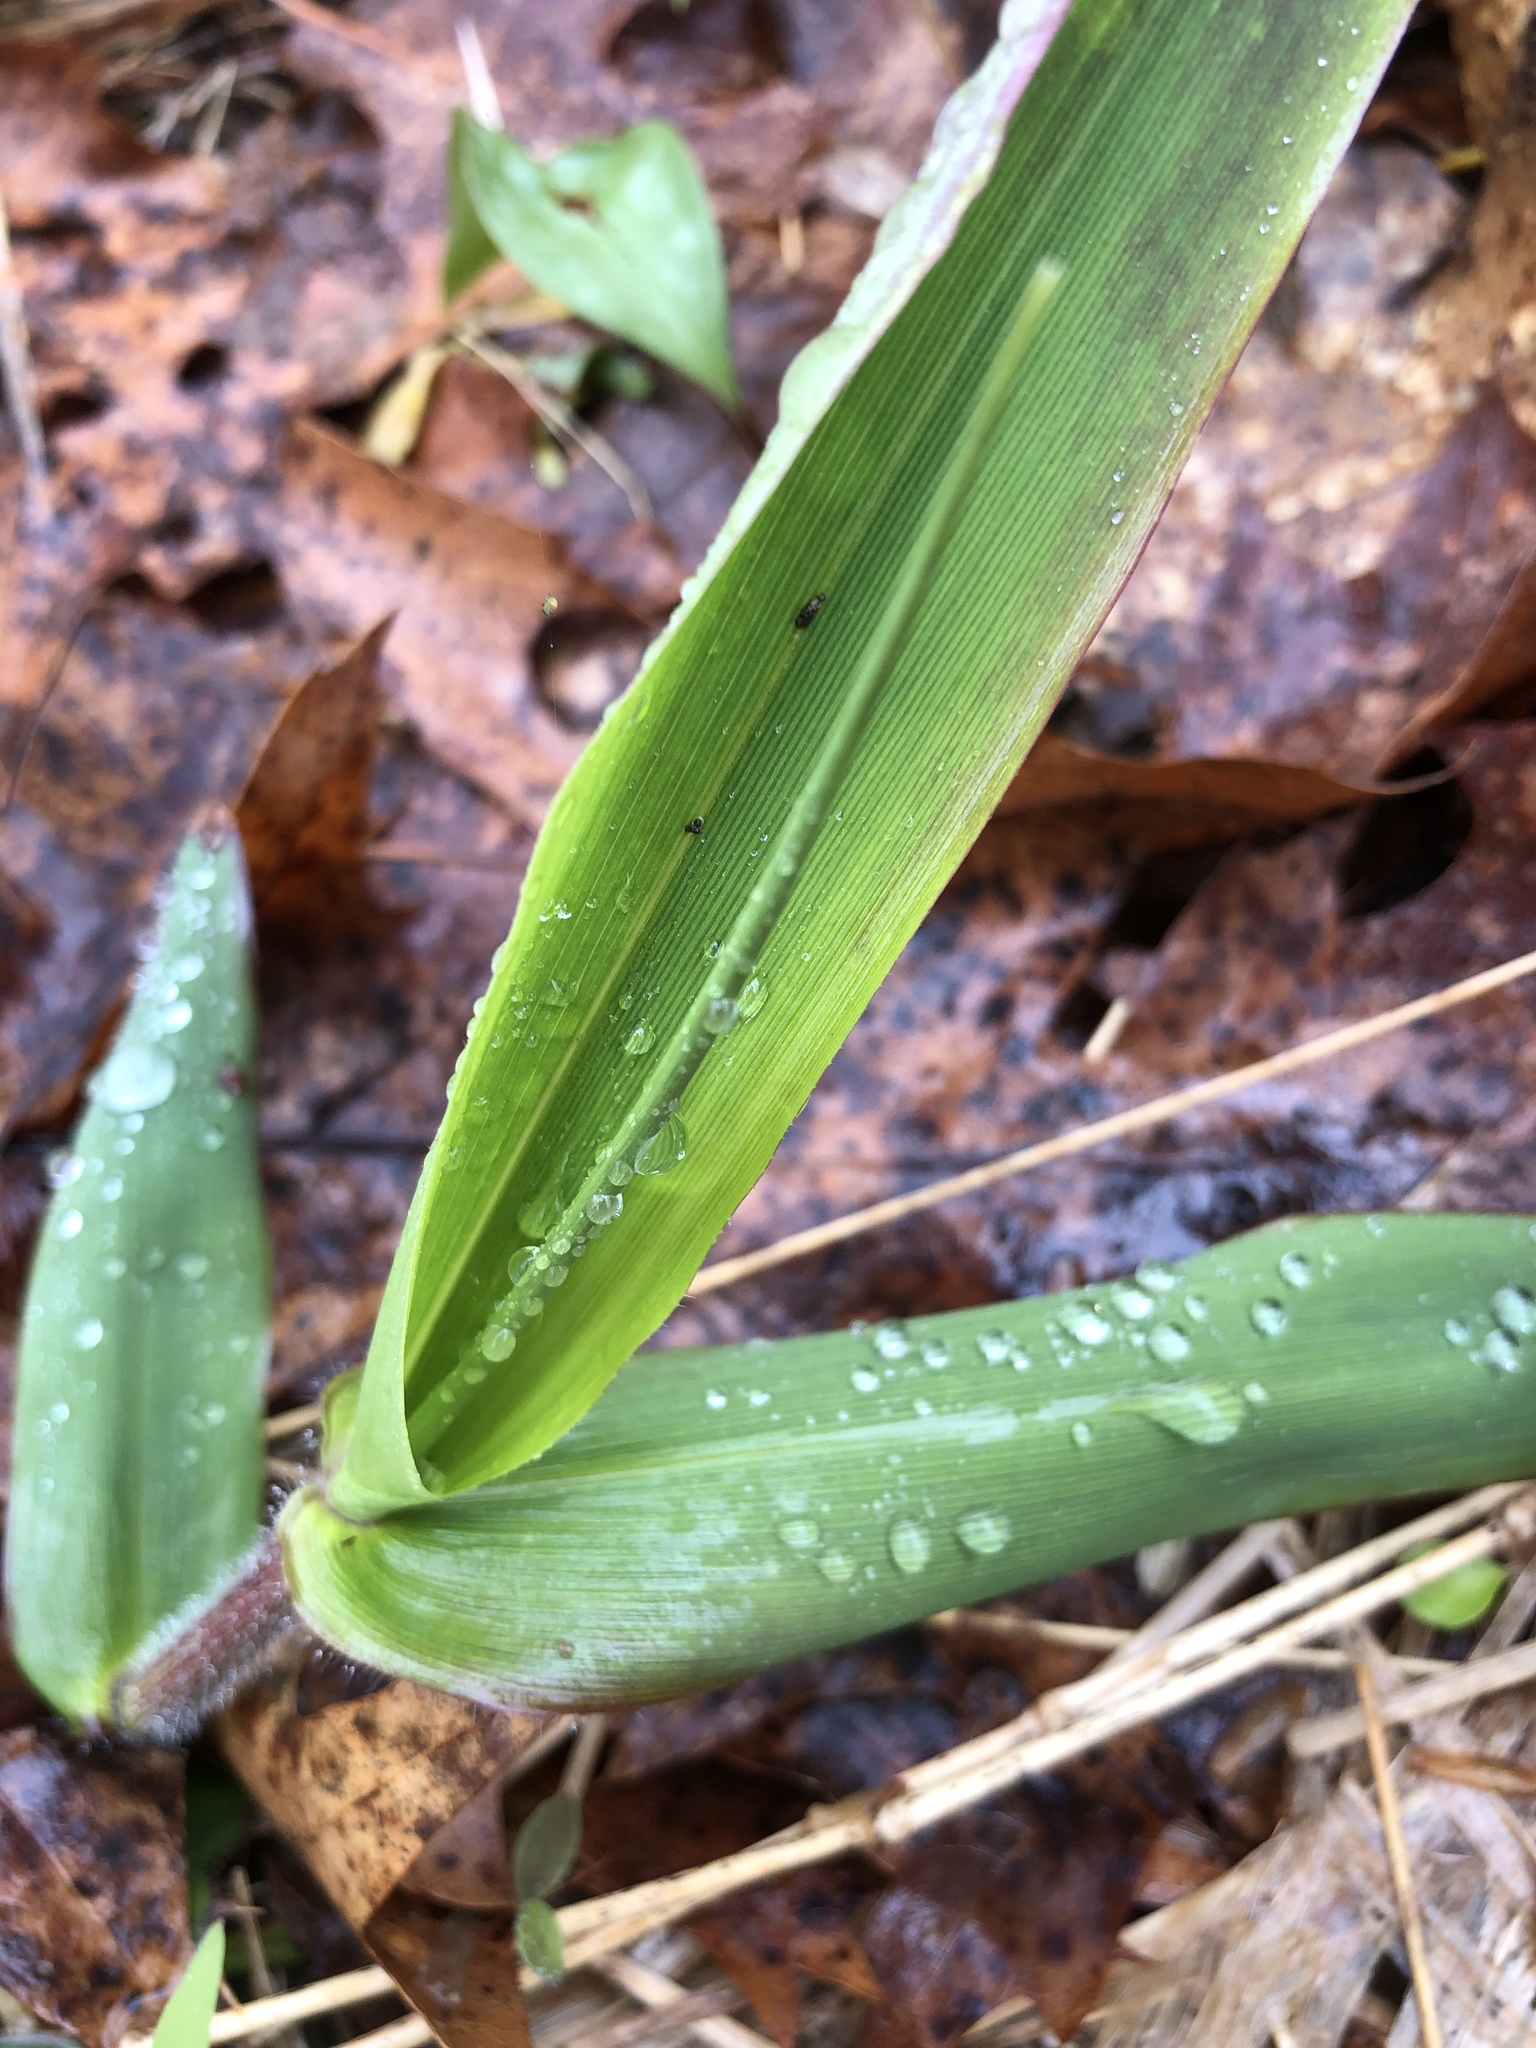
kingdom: Plantae
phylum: Tracheophyta
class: Liliopsida
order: Poales
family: Poaceae
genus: Dichanthelium
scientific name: Dichanthelium clandestinum
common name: Deer-tongue grass
